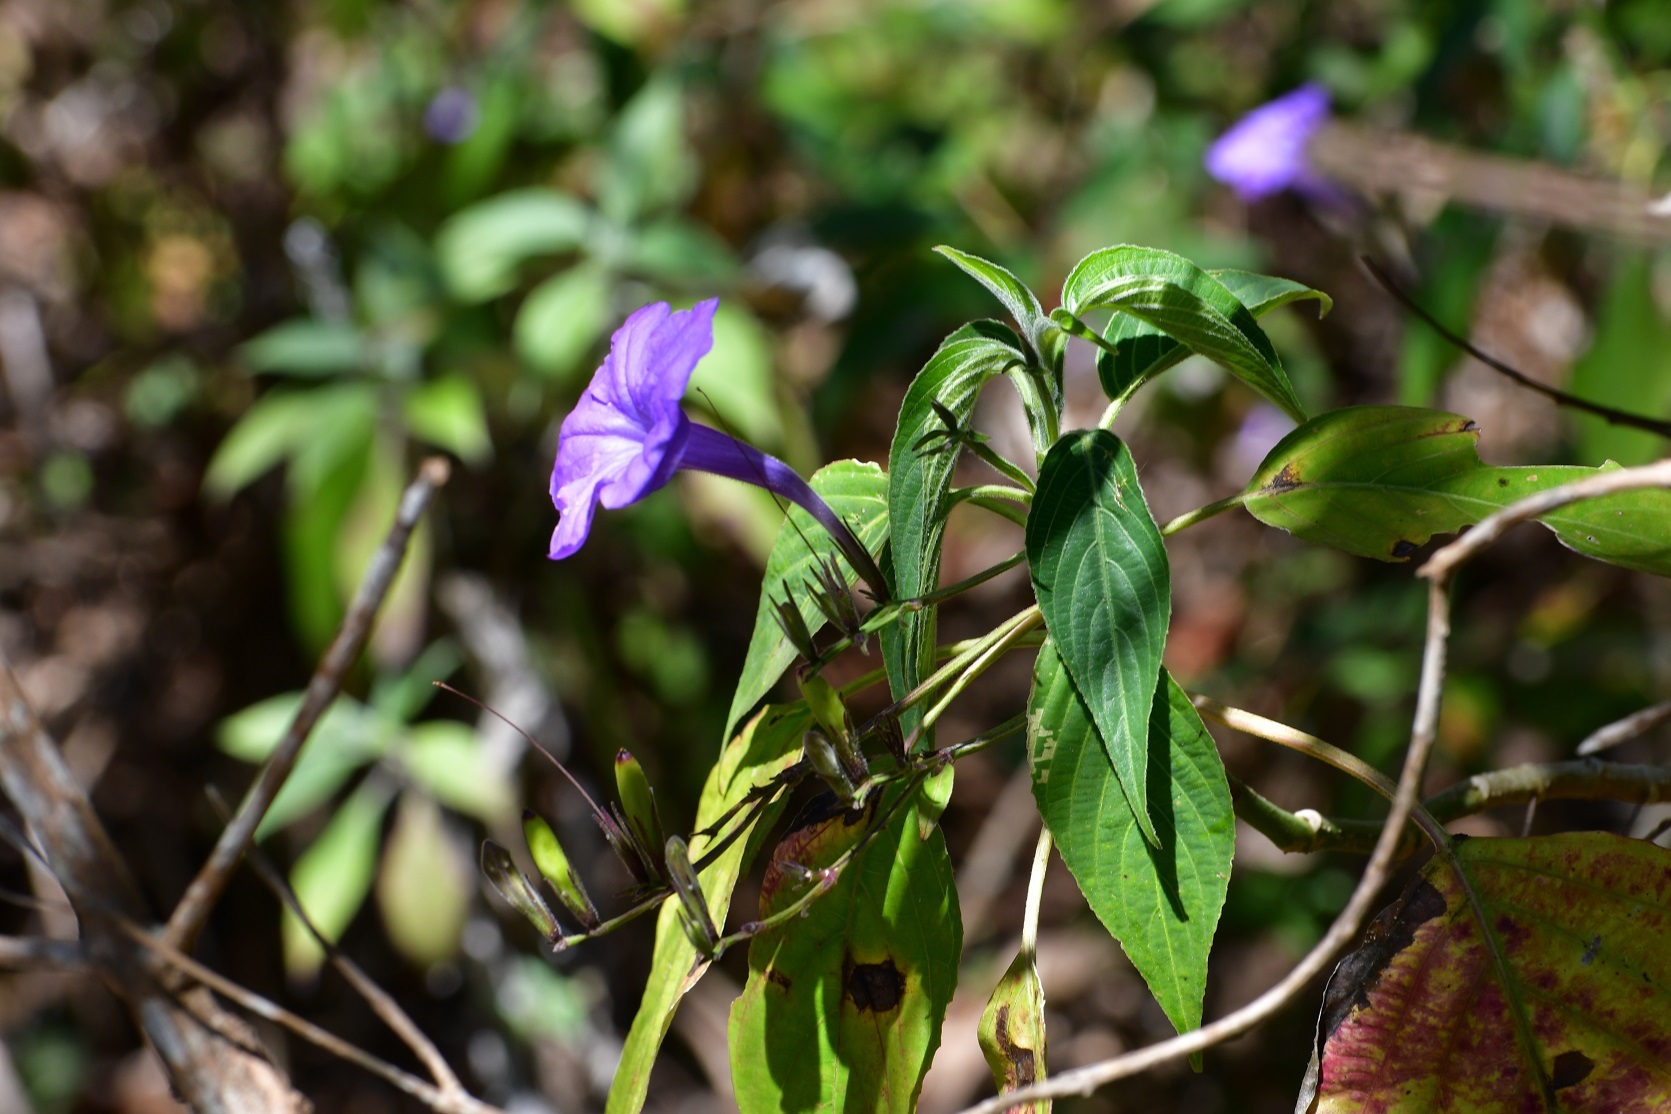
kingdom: Plantae
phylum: Tracheophyta
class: Magnoliopsida
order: Lamiales
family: Acanthaceae
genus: Ruellia
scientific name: Ruellia breedlovei
